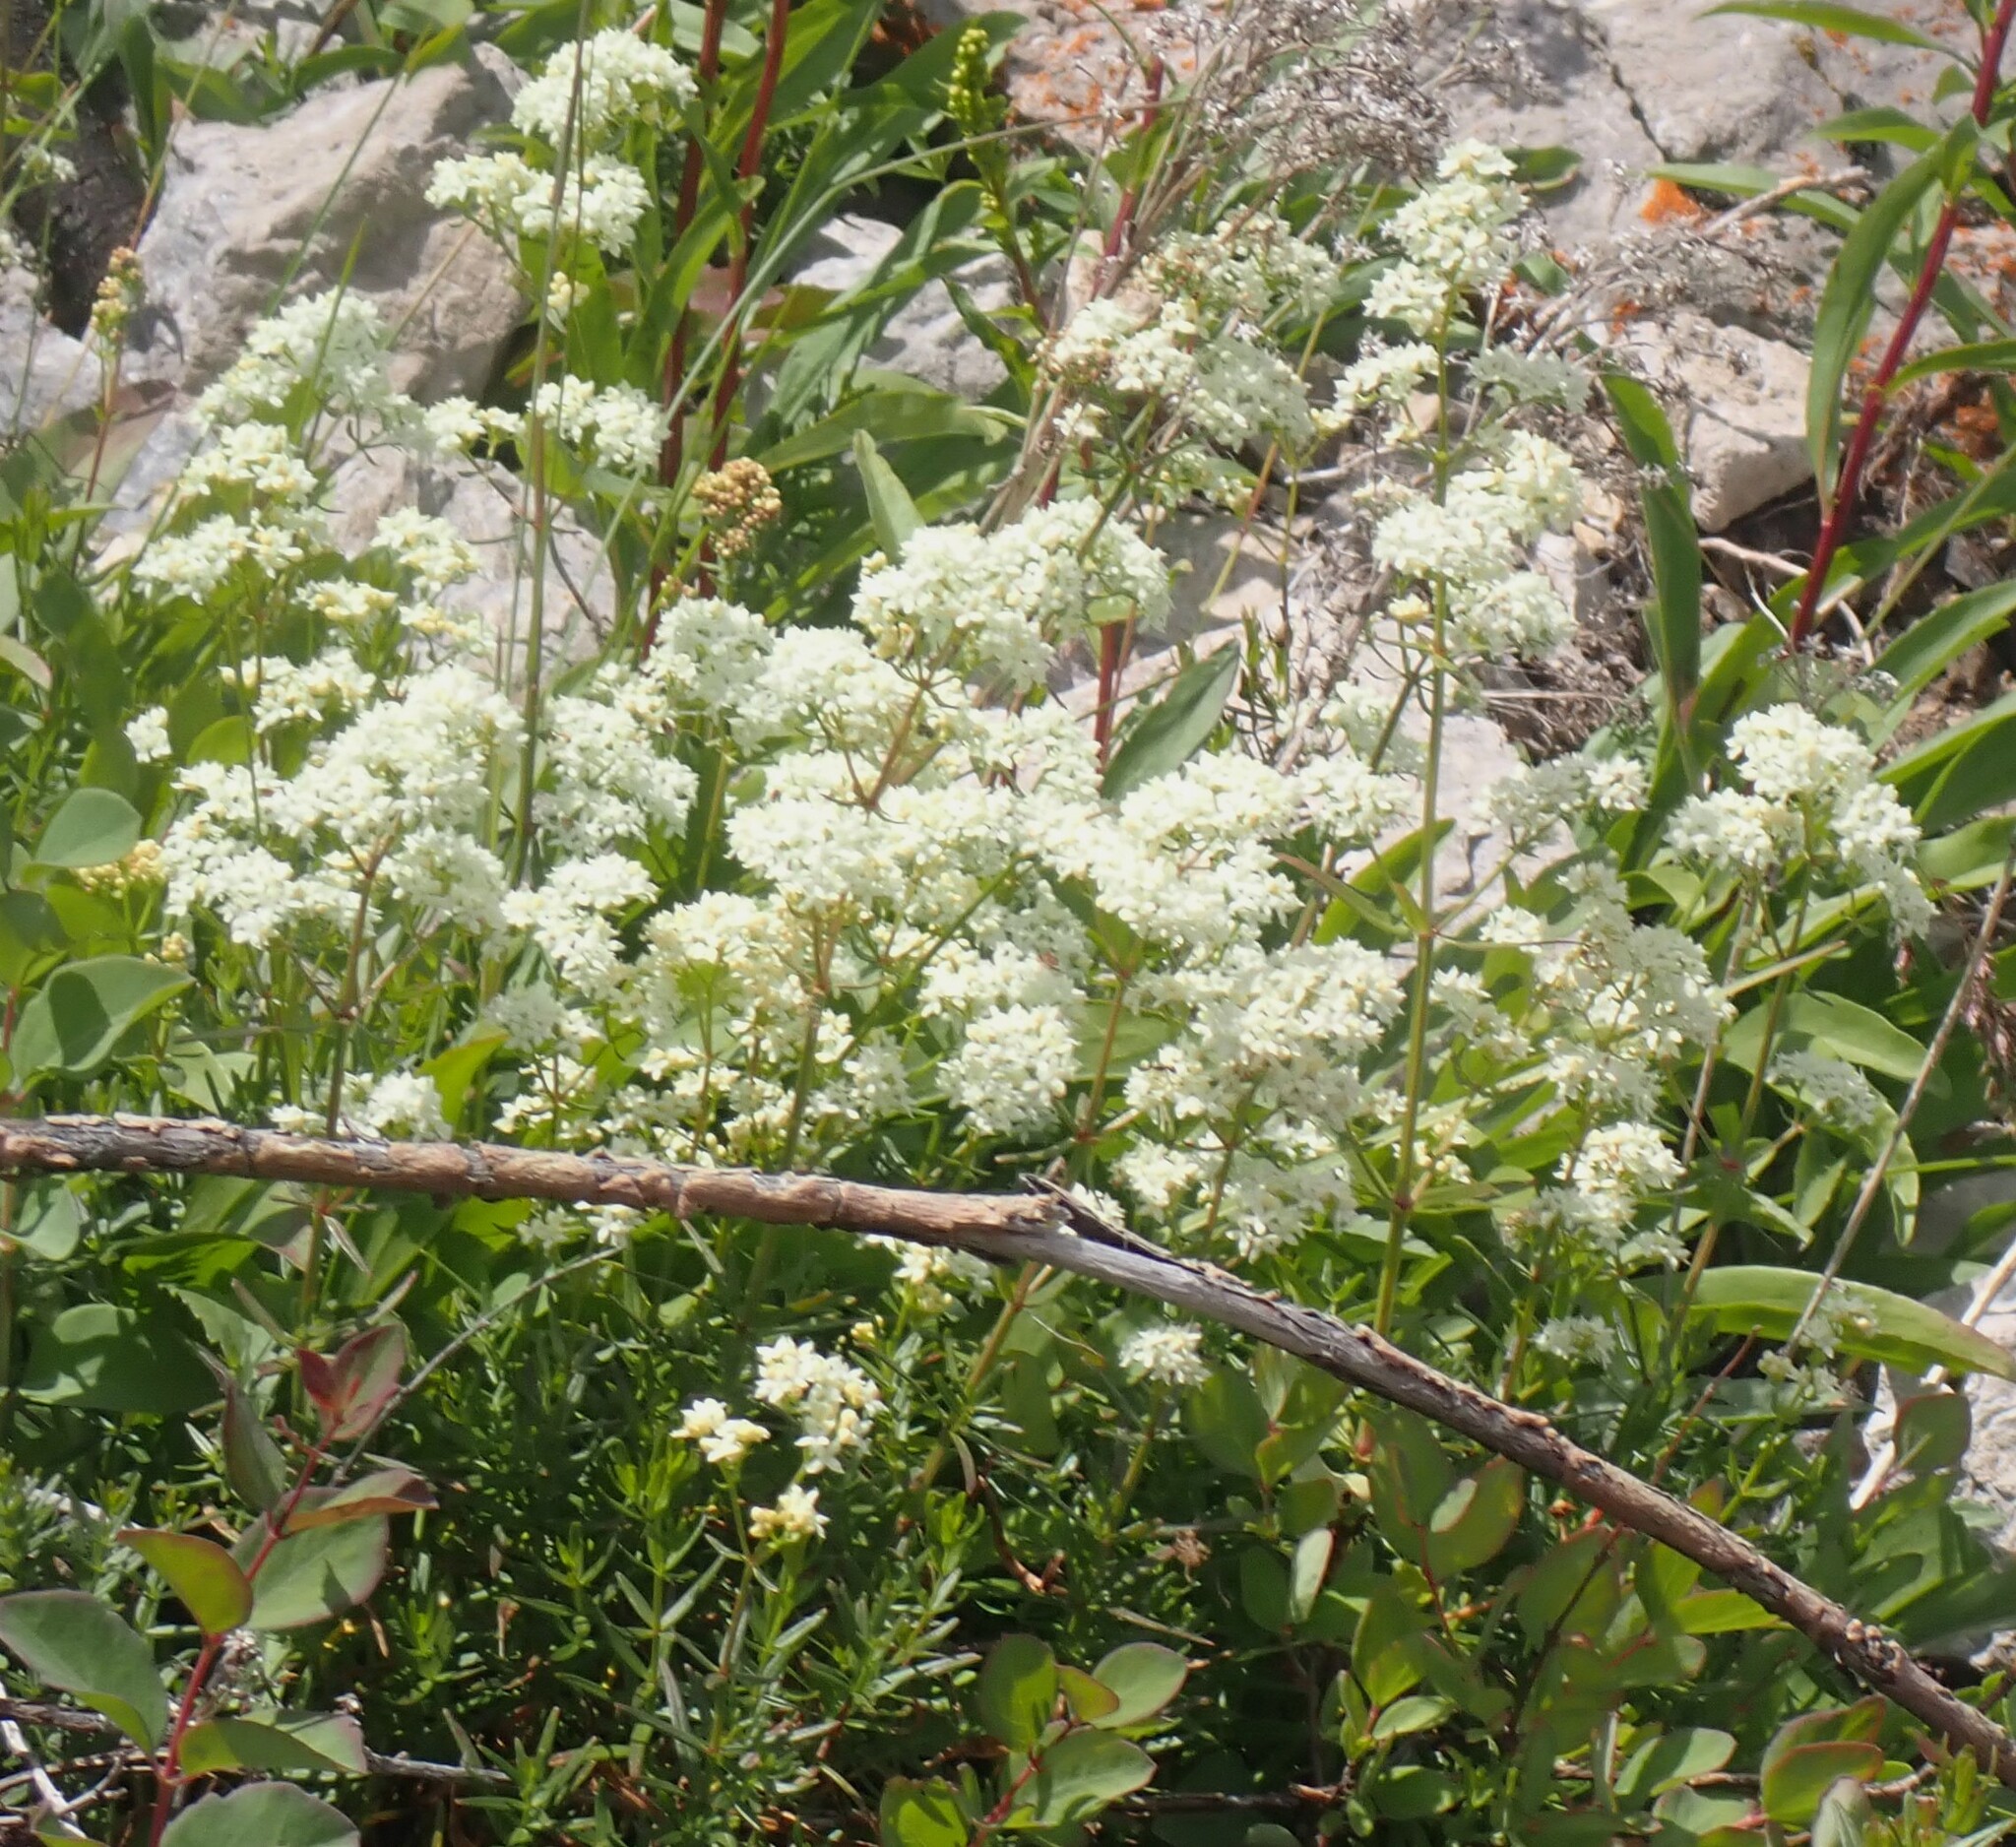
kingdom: Plantae
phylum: Tracheophyta
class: Magnoliopsida
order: Gentianales
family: Rubiaceae
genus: Galium
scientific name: Galium boreale
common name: Northern bedstraw
